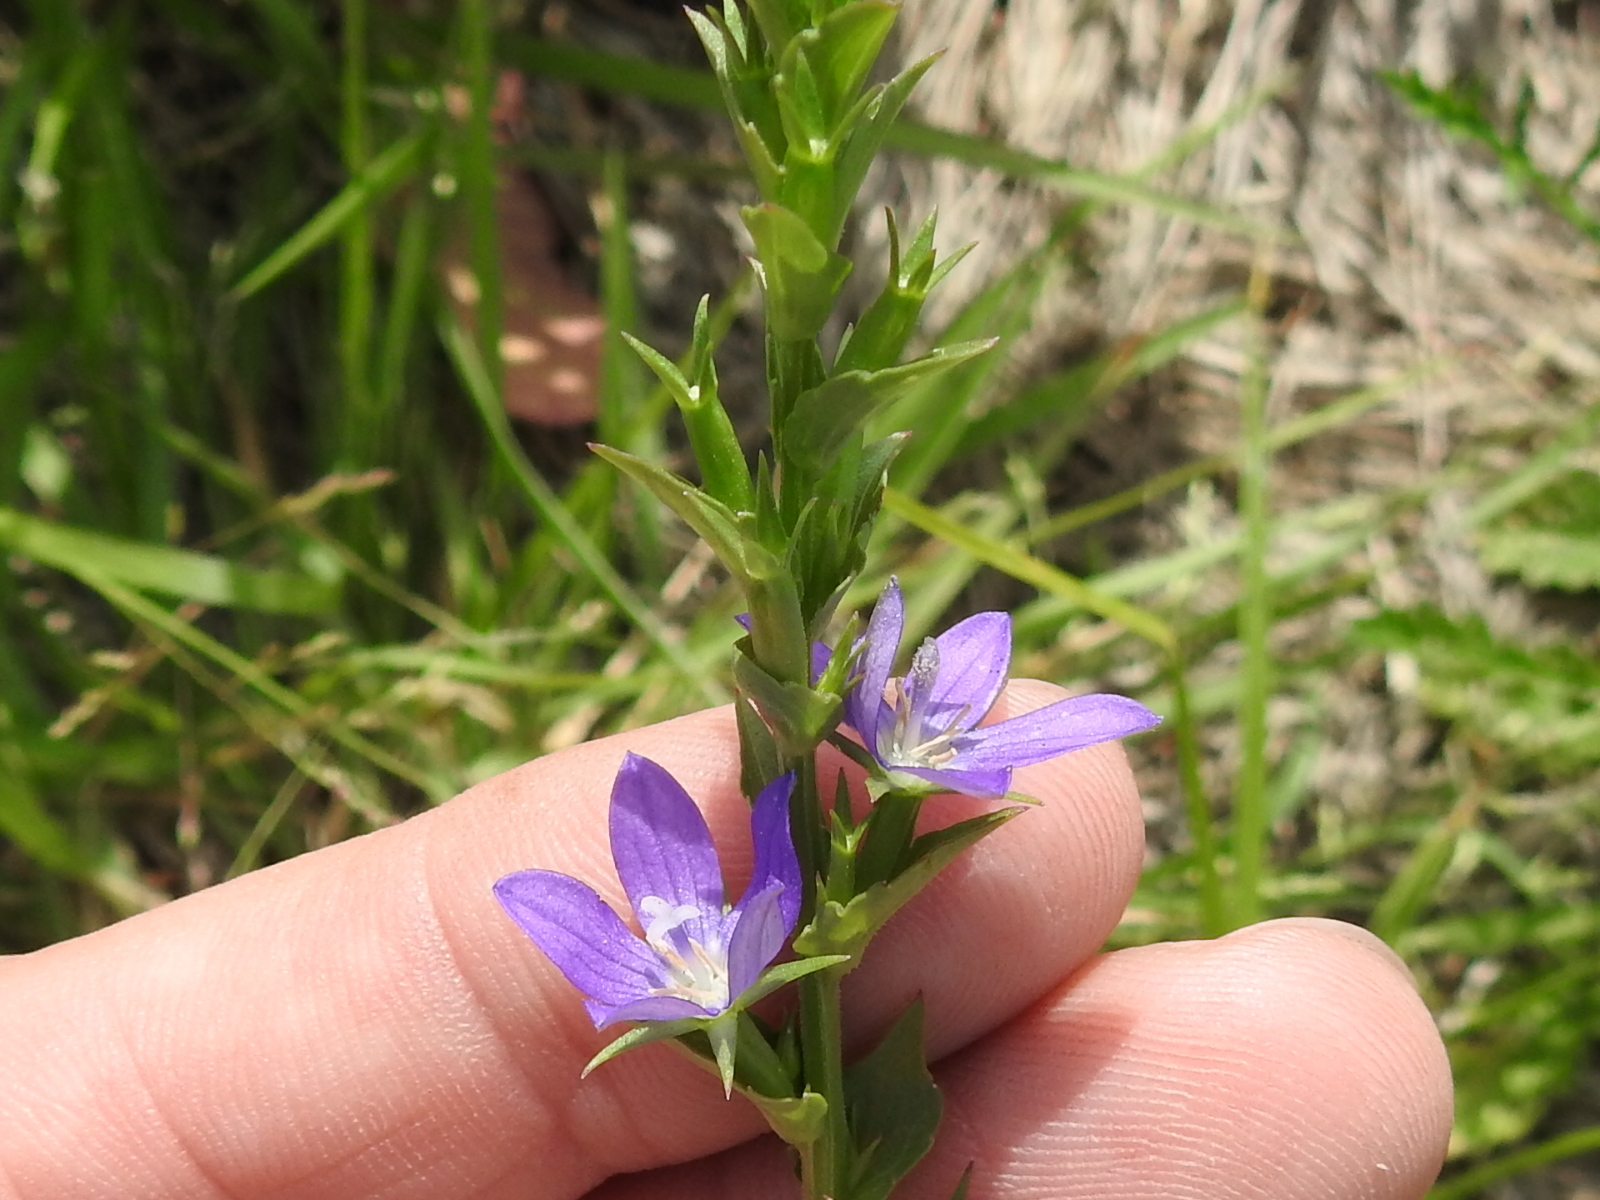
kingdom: Plantae
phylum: Tracheophyta
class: Magnoliopsida
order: Asterales
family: Campanulaceae
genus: Triodanis
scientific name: Triodanis perfoliata
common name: Clasping venus' looking-glass
